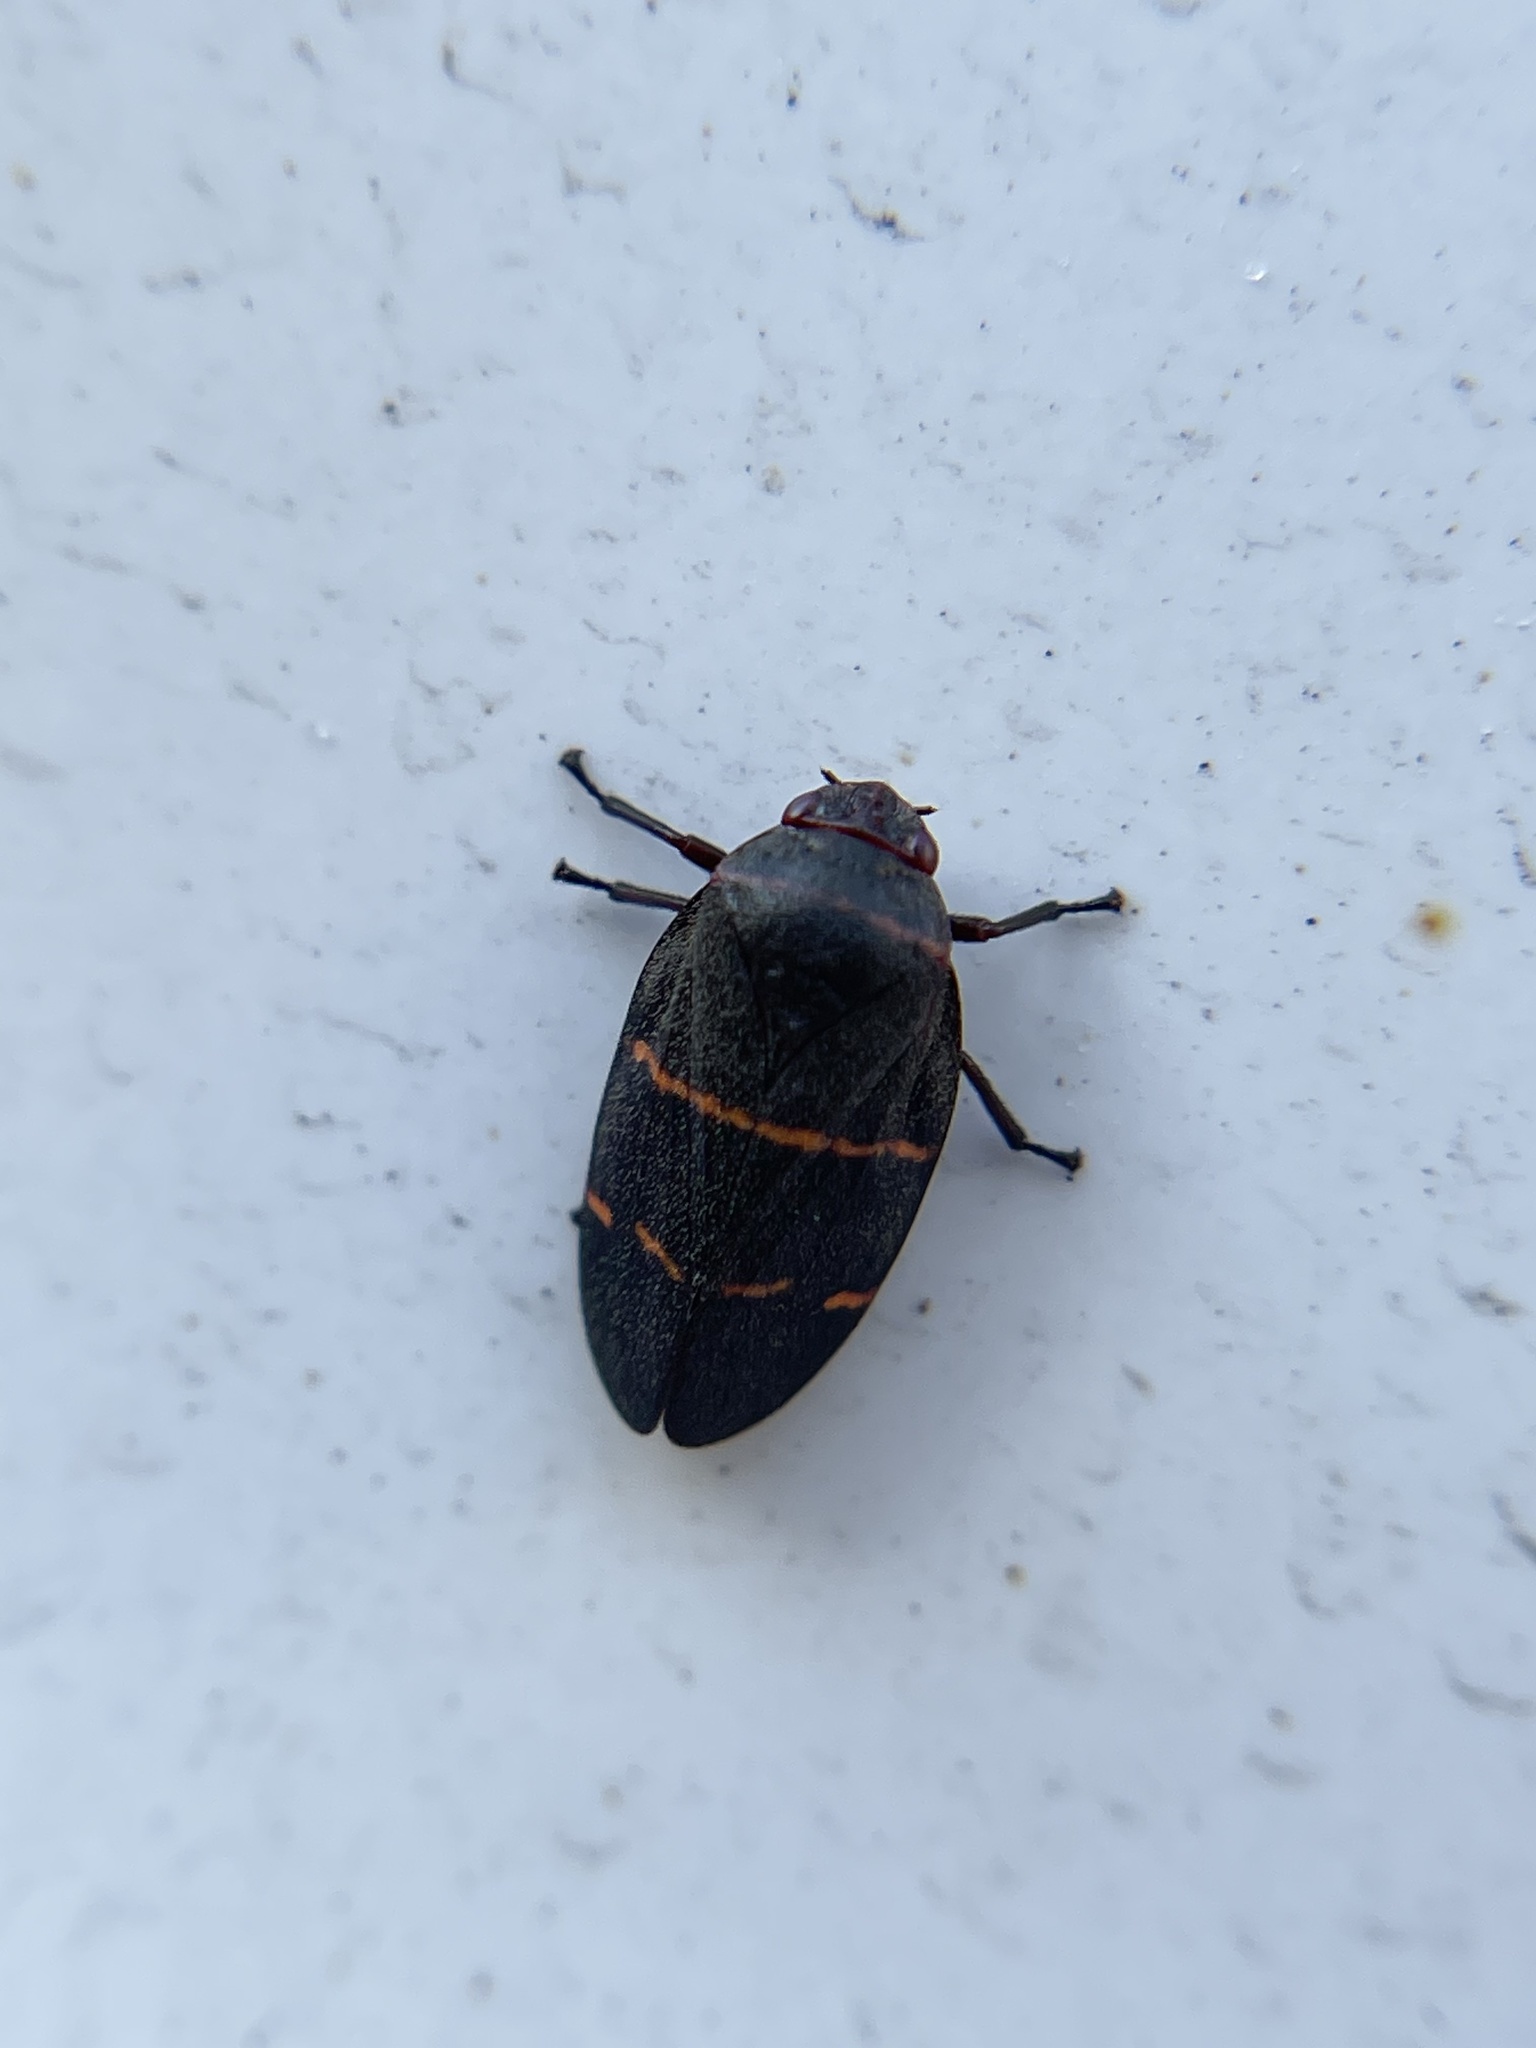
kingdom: Animalia
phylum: Arthropoda
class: Insecta
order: Hemiptera
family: Cercopidae
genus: Prosapia
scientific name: Prosapia bicincta
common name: Twolined spittlebug
